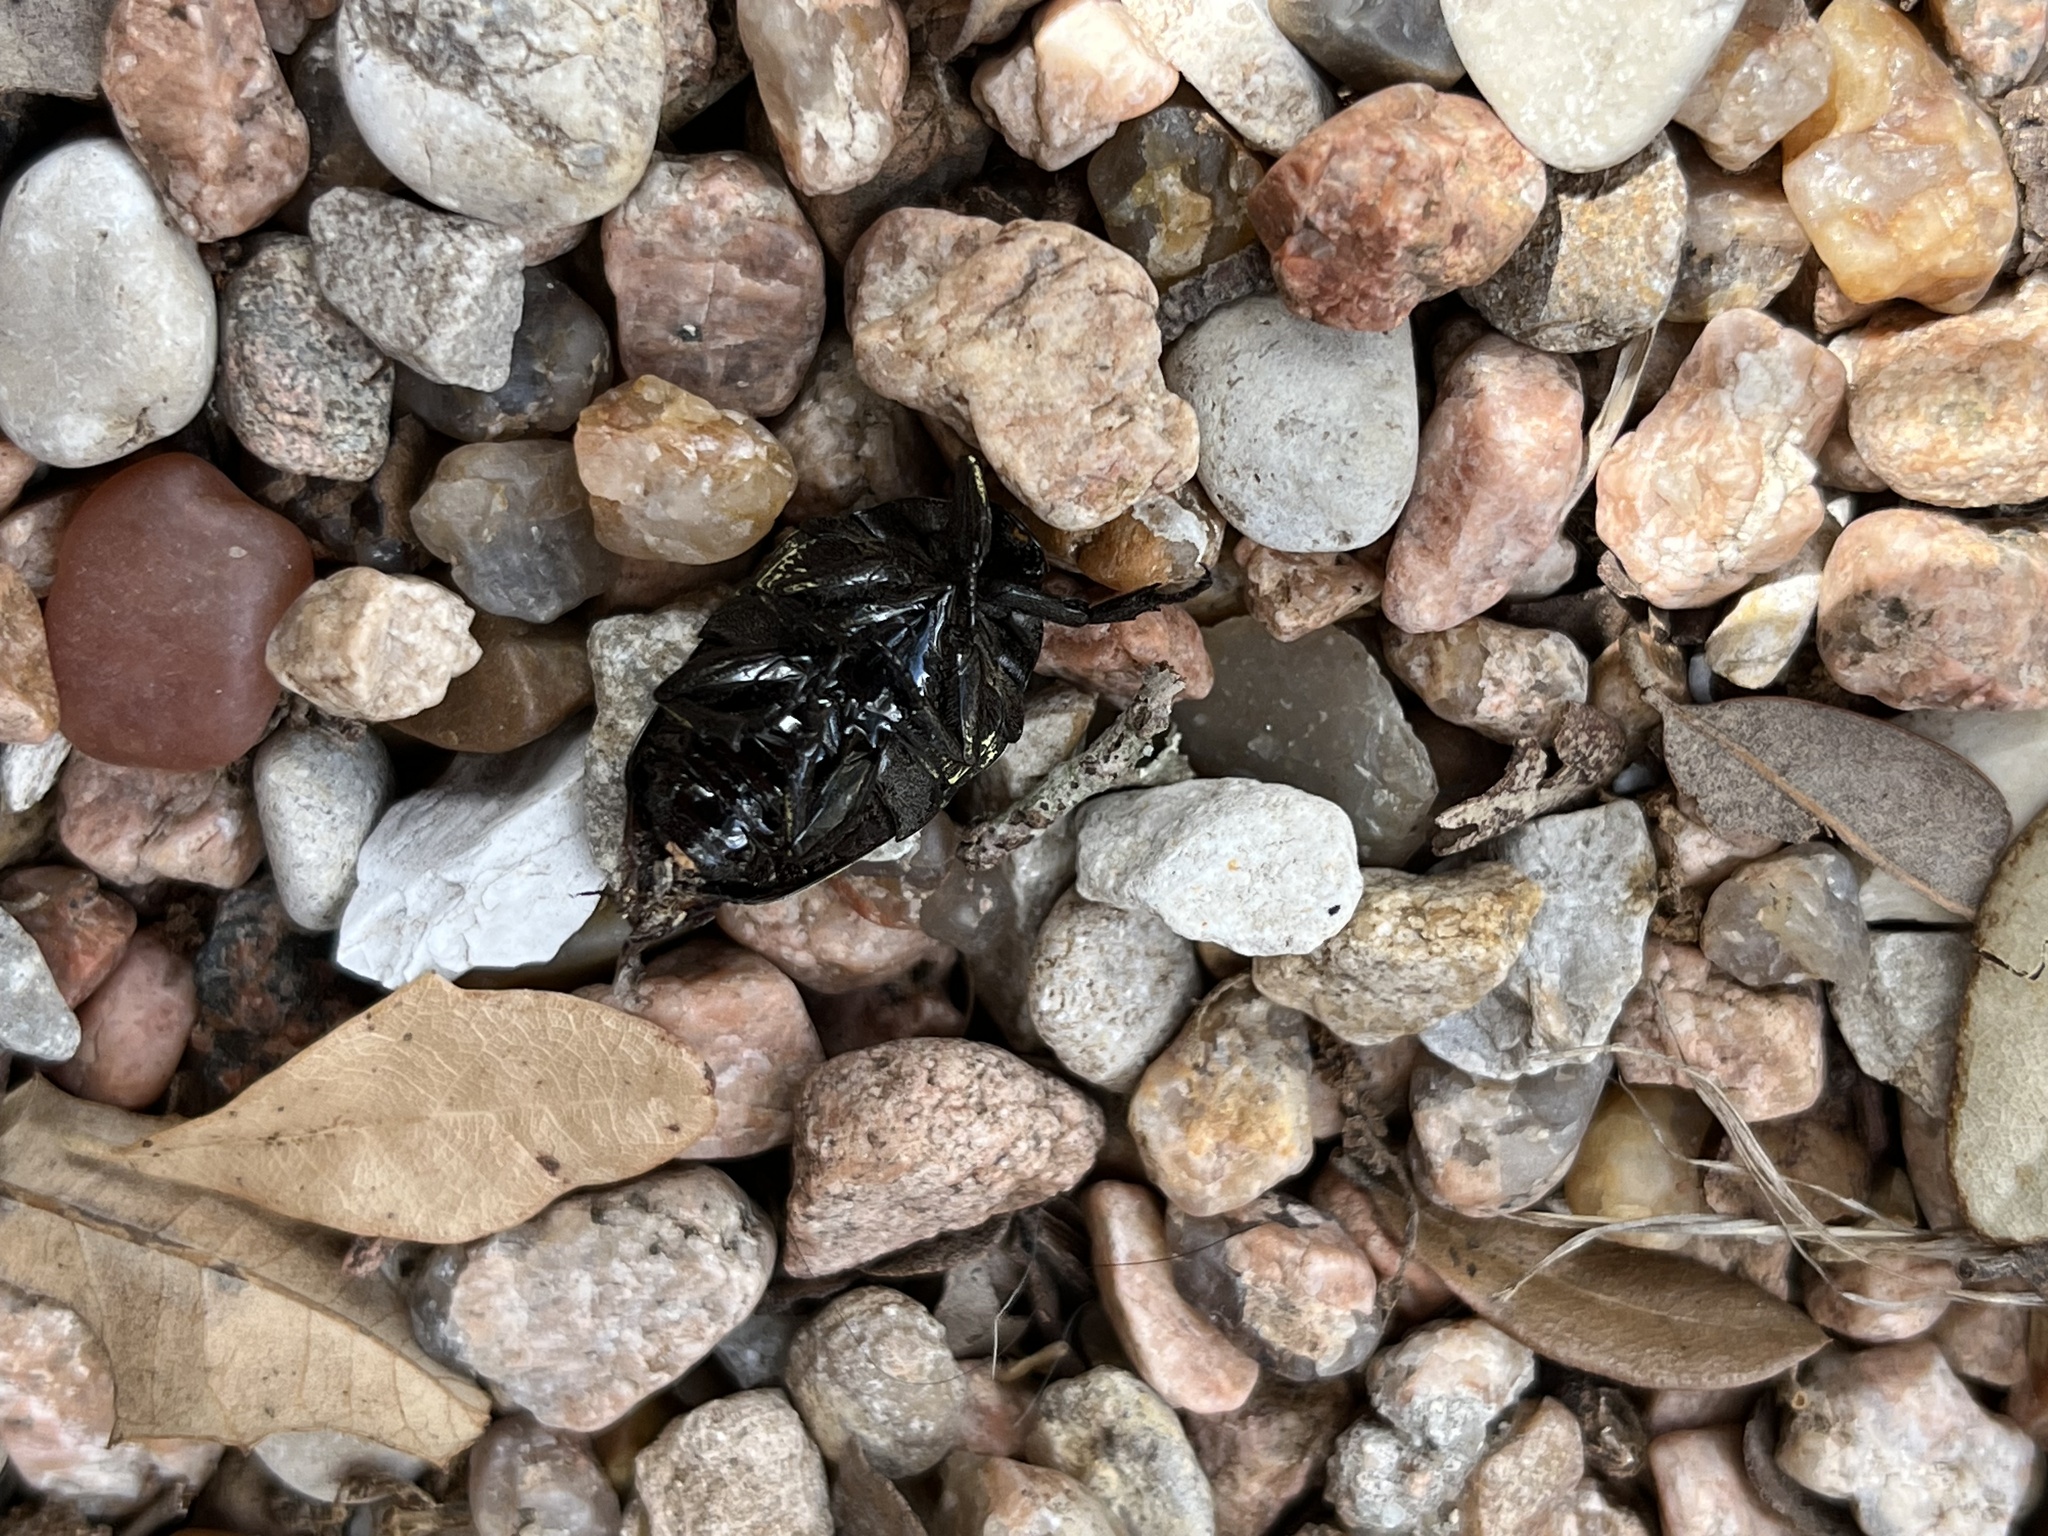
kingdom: Animalia
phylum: Arthropoda
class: Insecta
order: Coleoptera
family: Scarabaeidae
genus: Gymnetis
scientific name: Gymnetis thula
